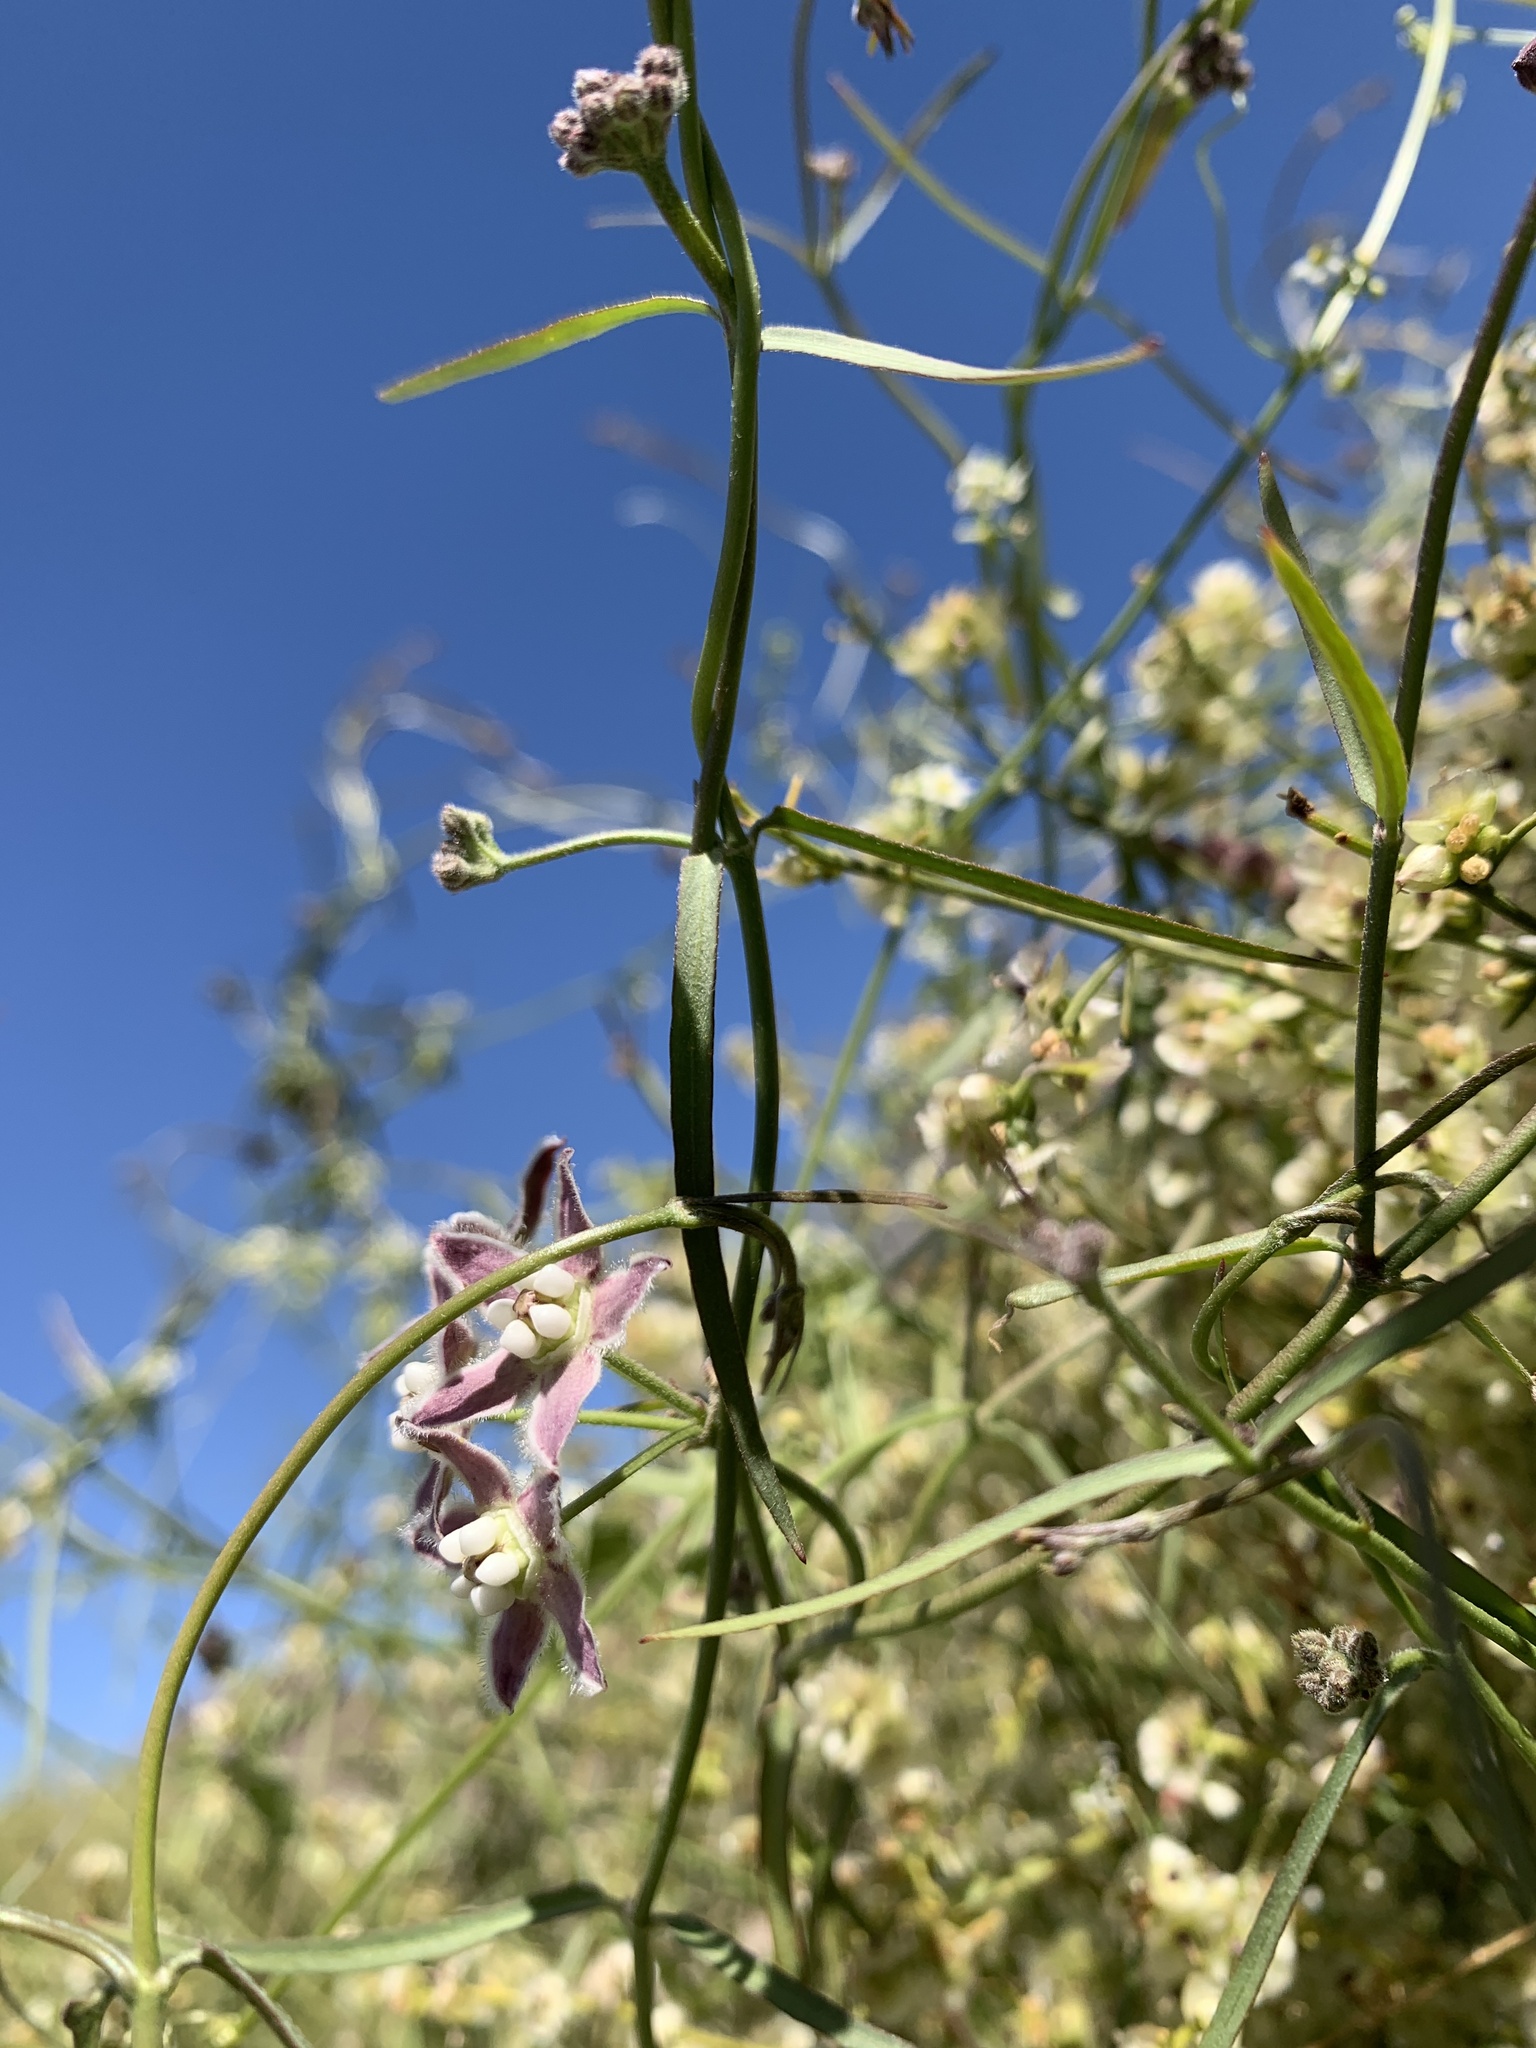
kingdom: Plantae
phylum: Tracheophyta
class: Magnoliopsida
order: Gentianales
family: Apocynaceae
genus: Funastrum
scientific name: Funastrum heterophyllum
